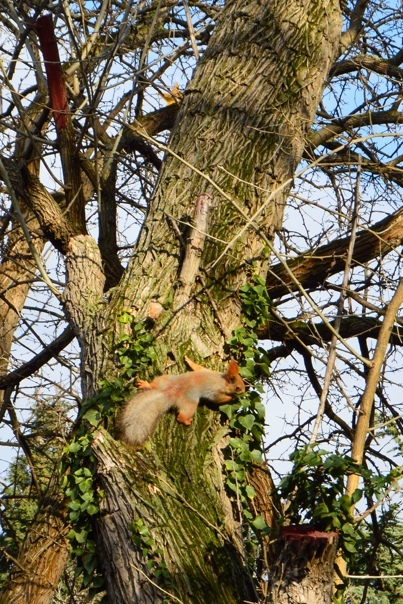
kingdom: Animalia
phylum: Chordata
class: Mammalia
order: Rodentia
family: Sciuridae
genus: Sciurus
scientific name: Sciurus vulgaris
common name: Eurasian red squirrel
